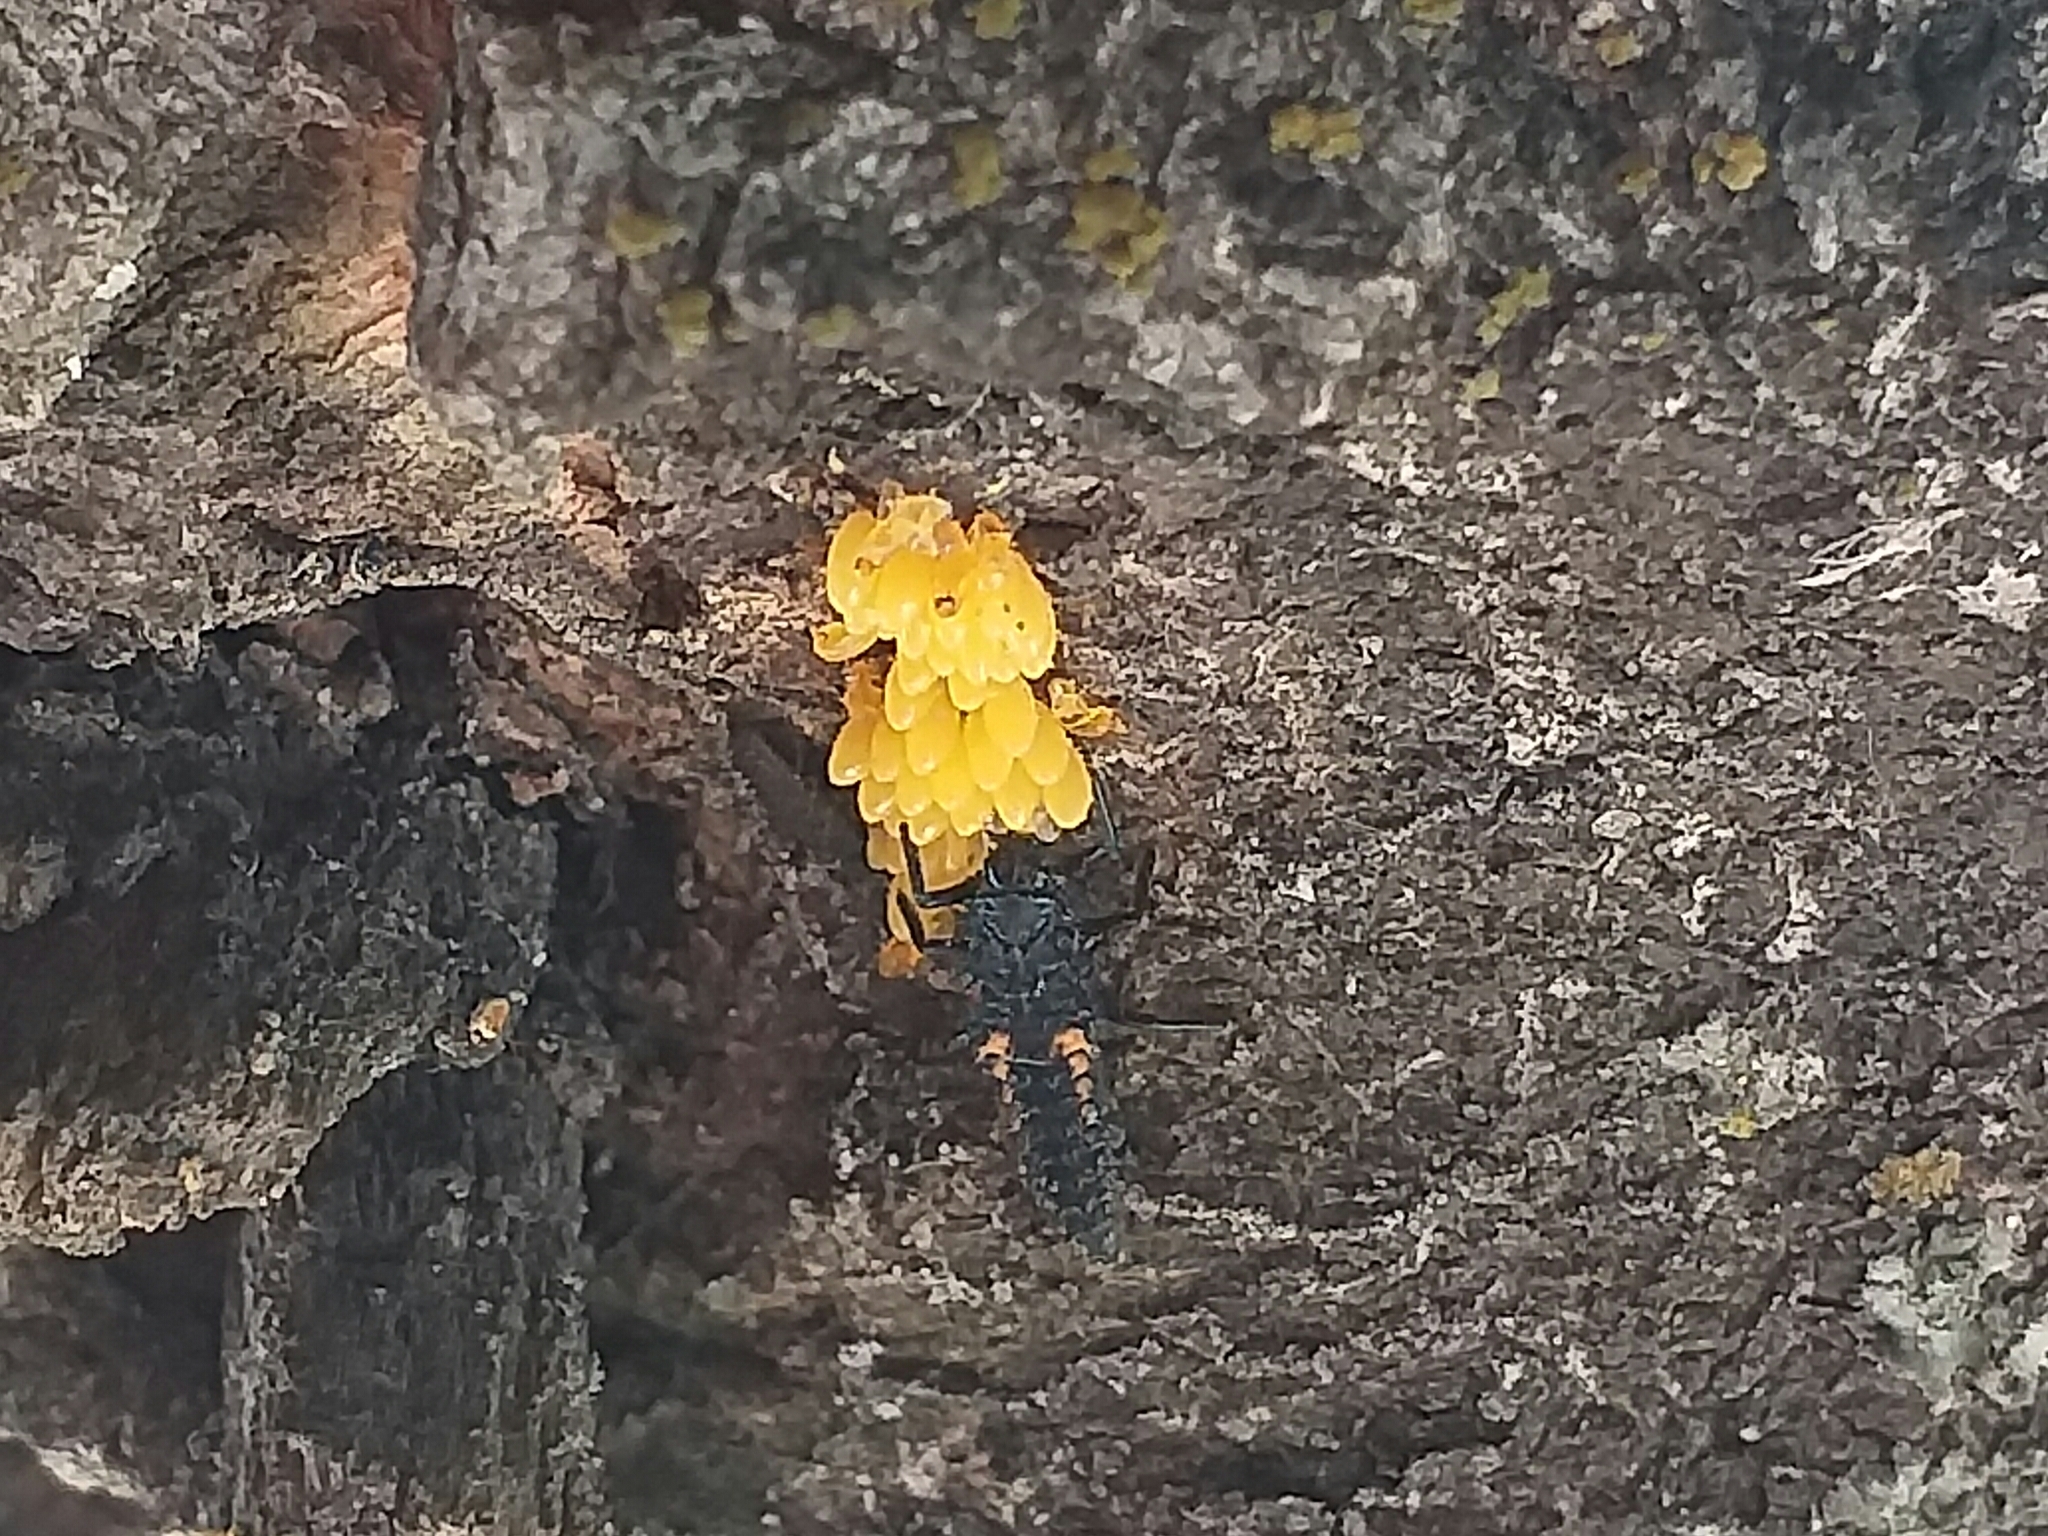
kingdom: Animalia
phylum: Arthropoda
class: Insecta
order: Coleoptera
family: Coccinellidae
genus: Harmonia
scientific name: Harmonia axyridis
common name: Harlequin ladybird
